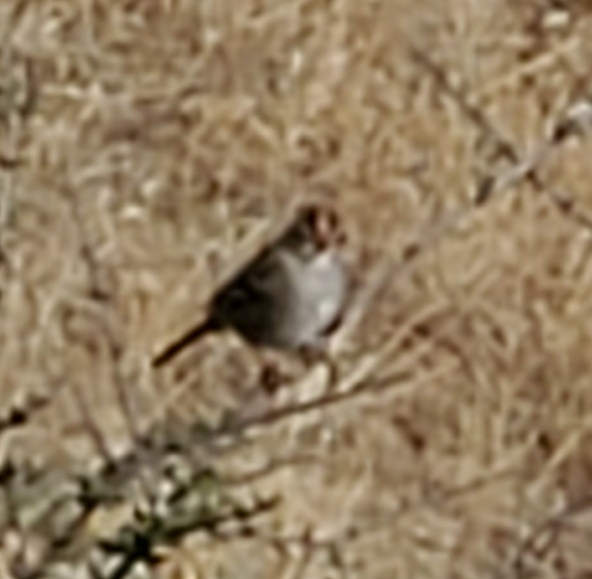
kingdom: Animalia
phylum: Chordata
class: Aves
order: Passeriformes
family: Passerellidae
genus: Zonotrichia
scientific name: Zonotrichia leucophrys
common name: White-crowned sparrow
